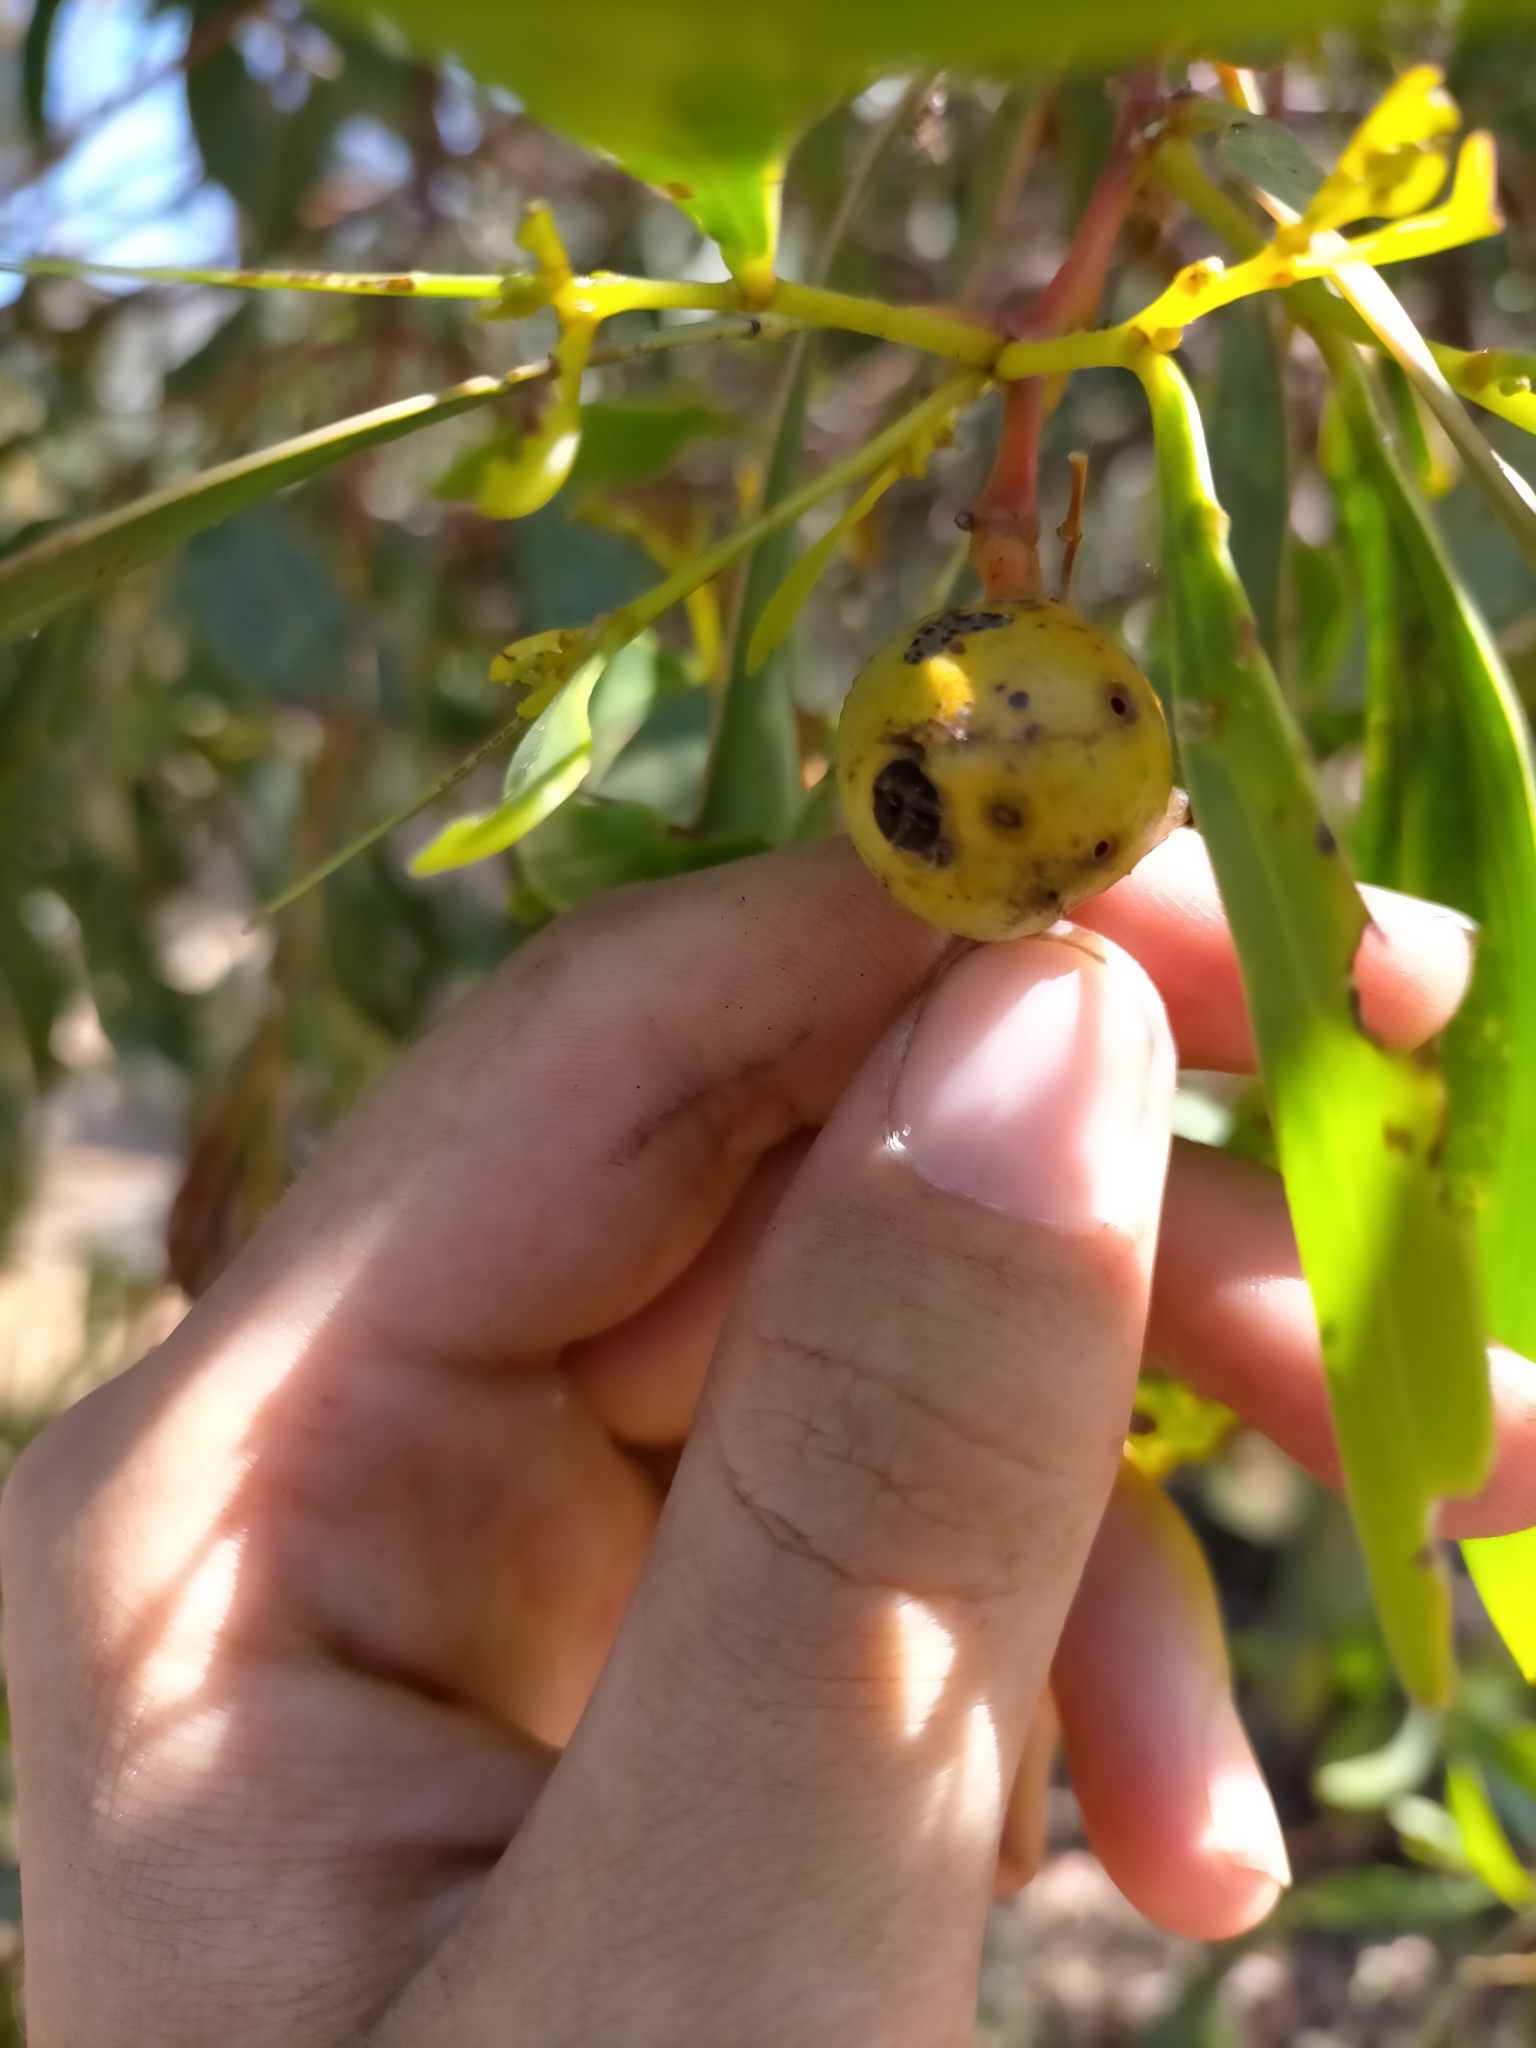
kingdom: Animalia
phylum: Arthropoda
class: Insecta
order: Hymenoptera
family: Pteromalidae
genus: Trichilogaster
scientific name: Trichilogaster signiventris
